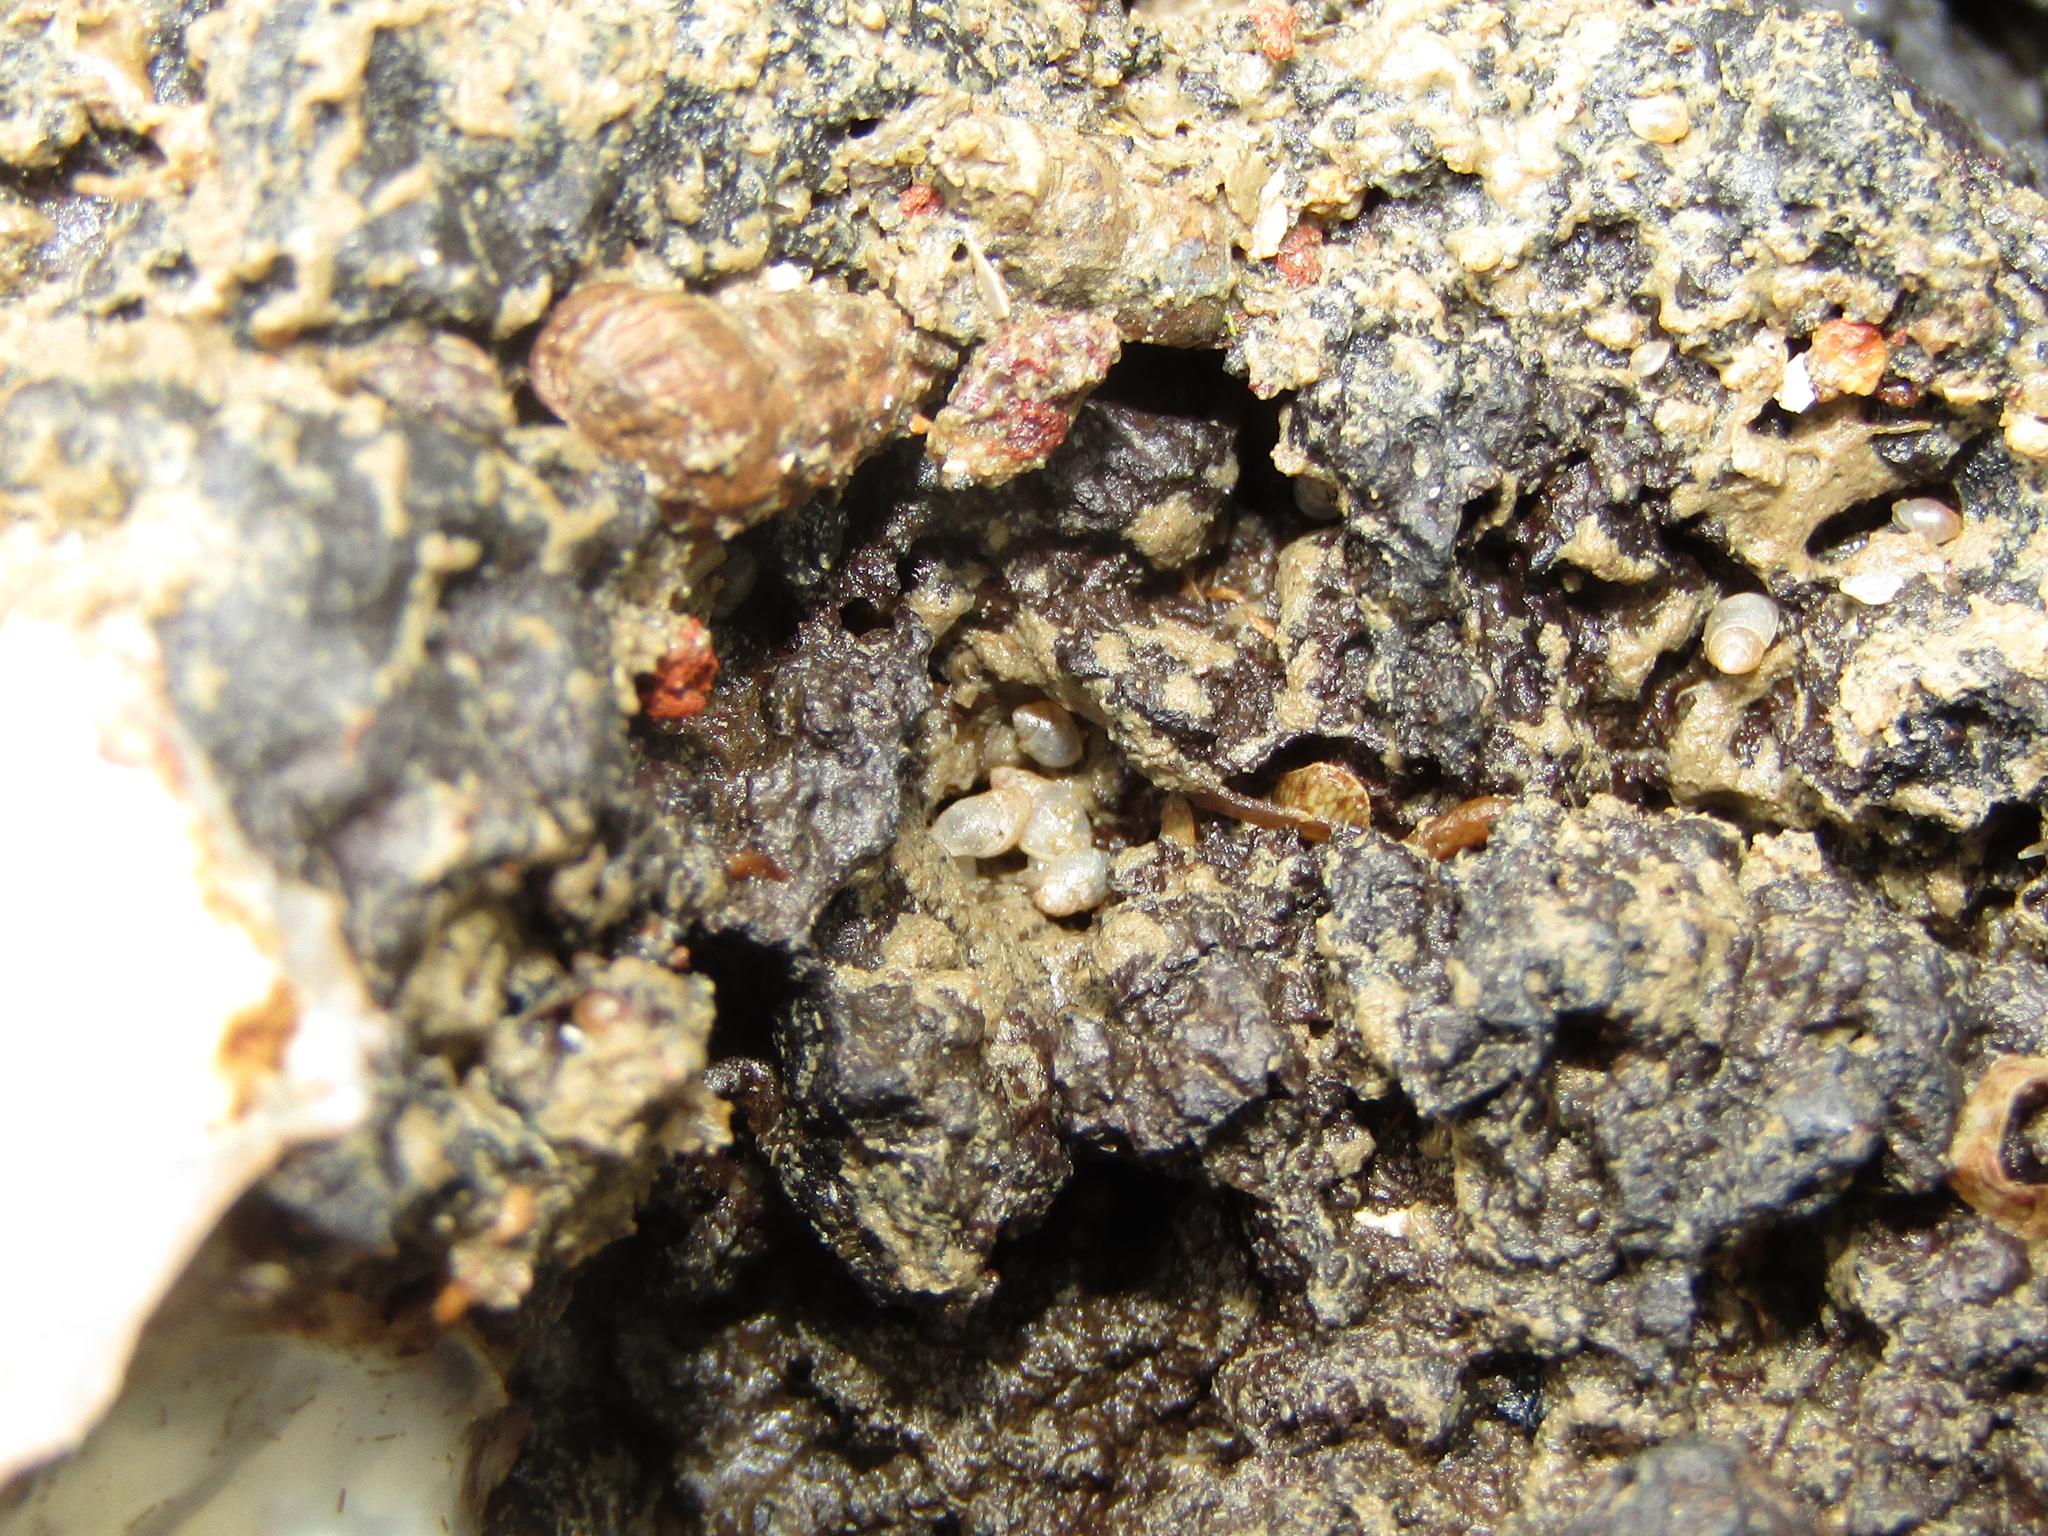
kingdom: Animalia
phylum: Mollusca
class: Gastropoda
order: Ellobiida
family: Ellobiidae
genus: Leuconopsis
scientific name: Leuconopsis obsoleta
